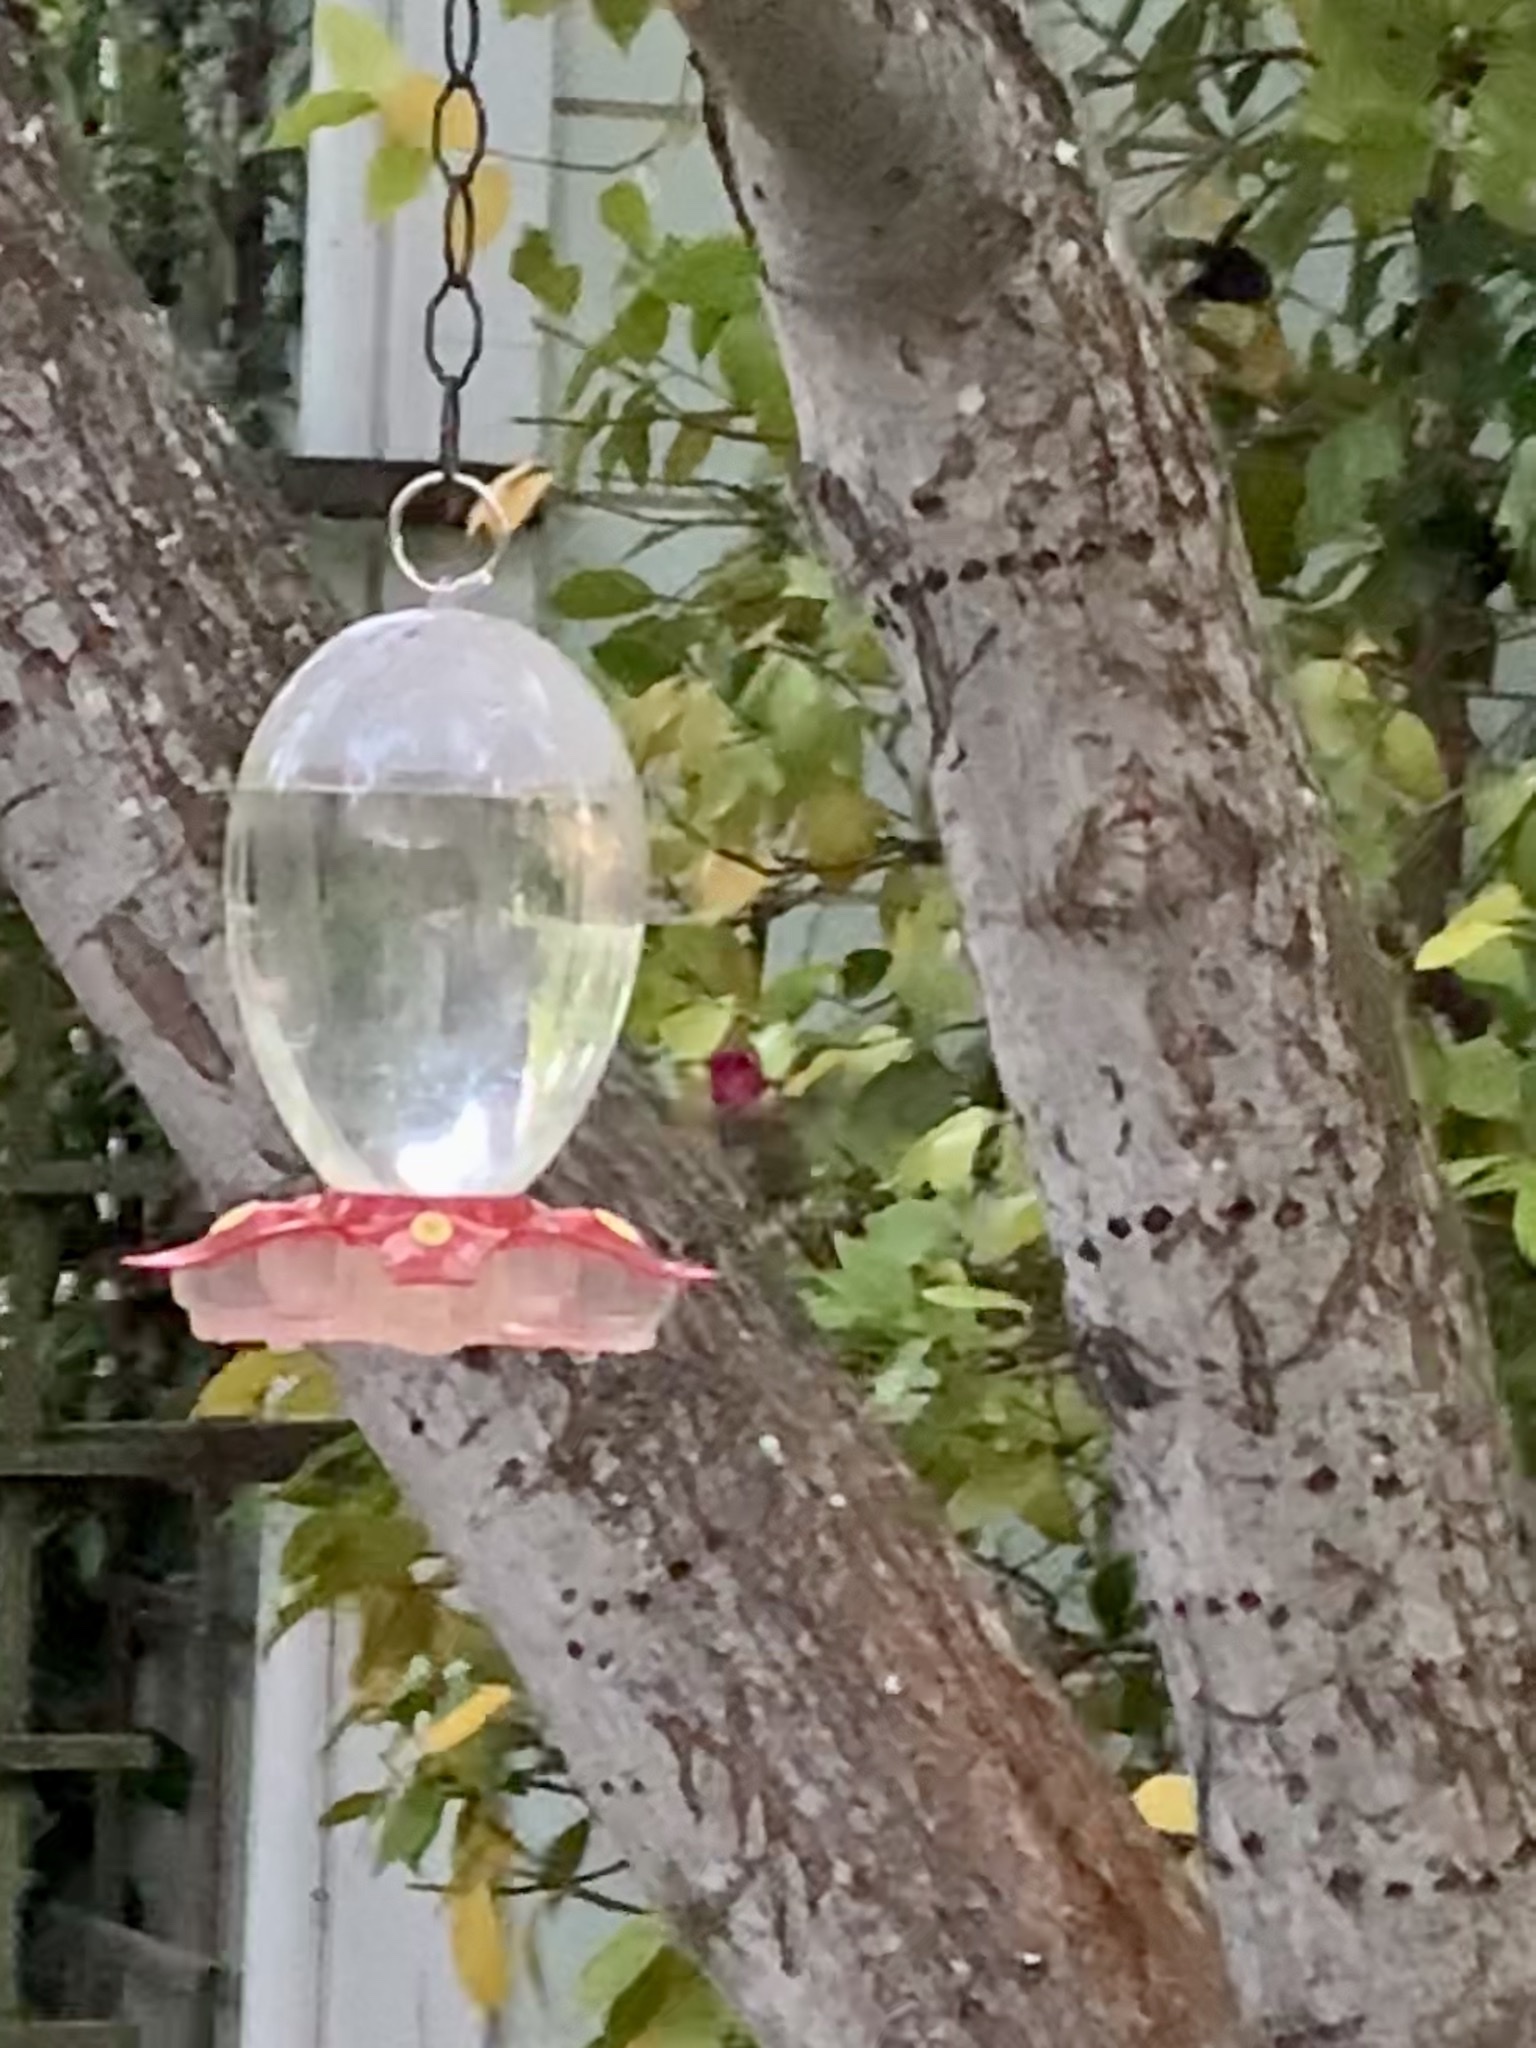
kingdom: Animalia
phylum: Chordata
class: Aves
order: Apodiformes
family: Trochilidae
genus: Calypte
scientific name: Calypte anna
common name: Anna's hummingbird
